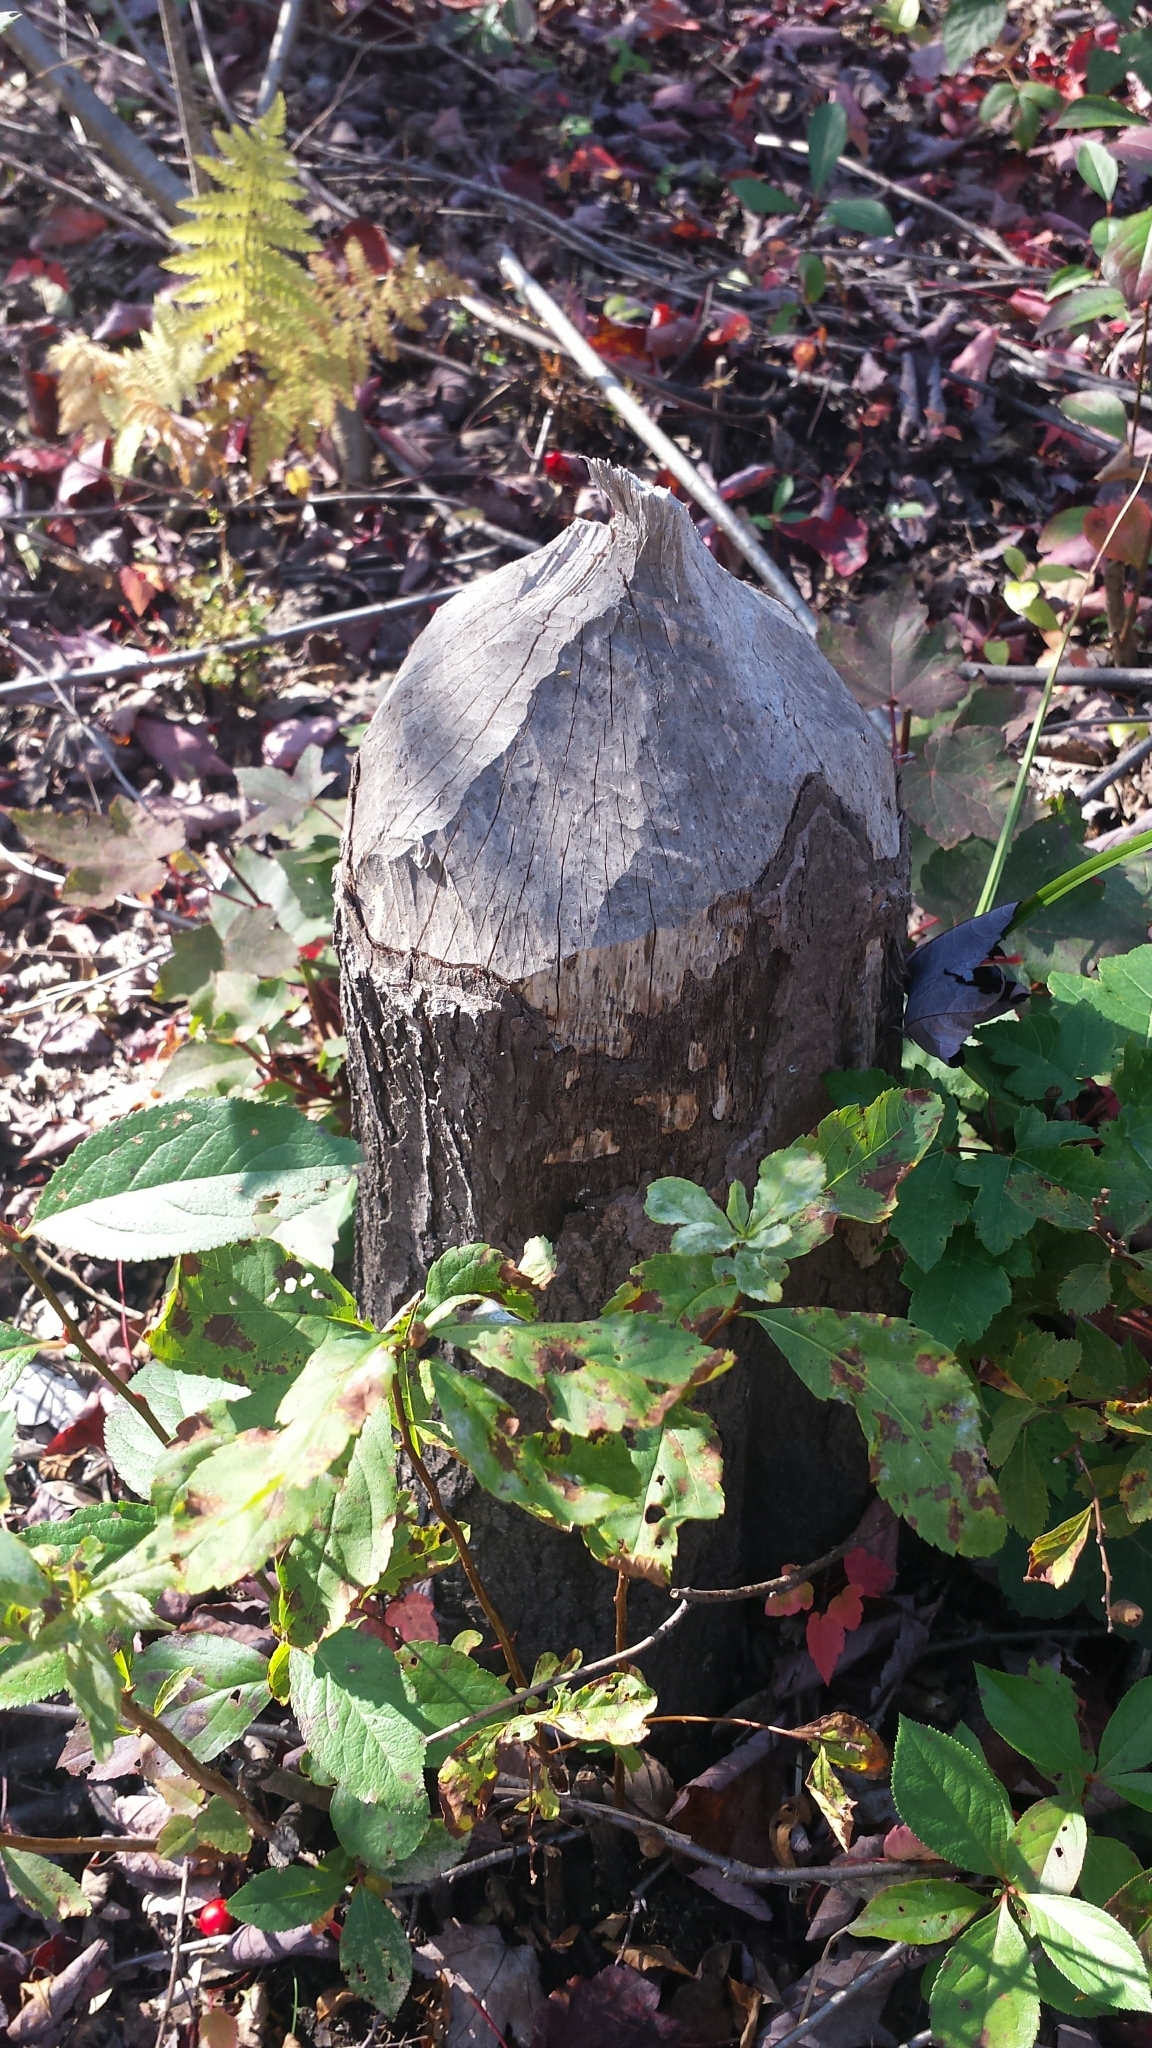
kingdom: Animalia
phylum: Chordata
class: Mammalia
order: Rodentia
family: Castoridae
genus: Castor
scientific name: Castor canadensis
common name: American beaver
